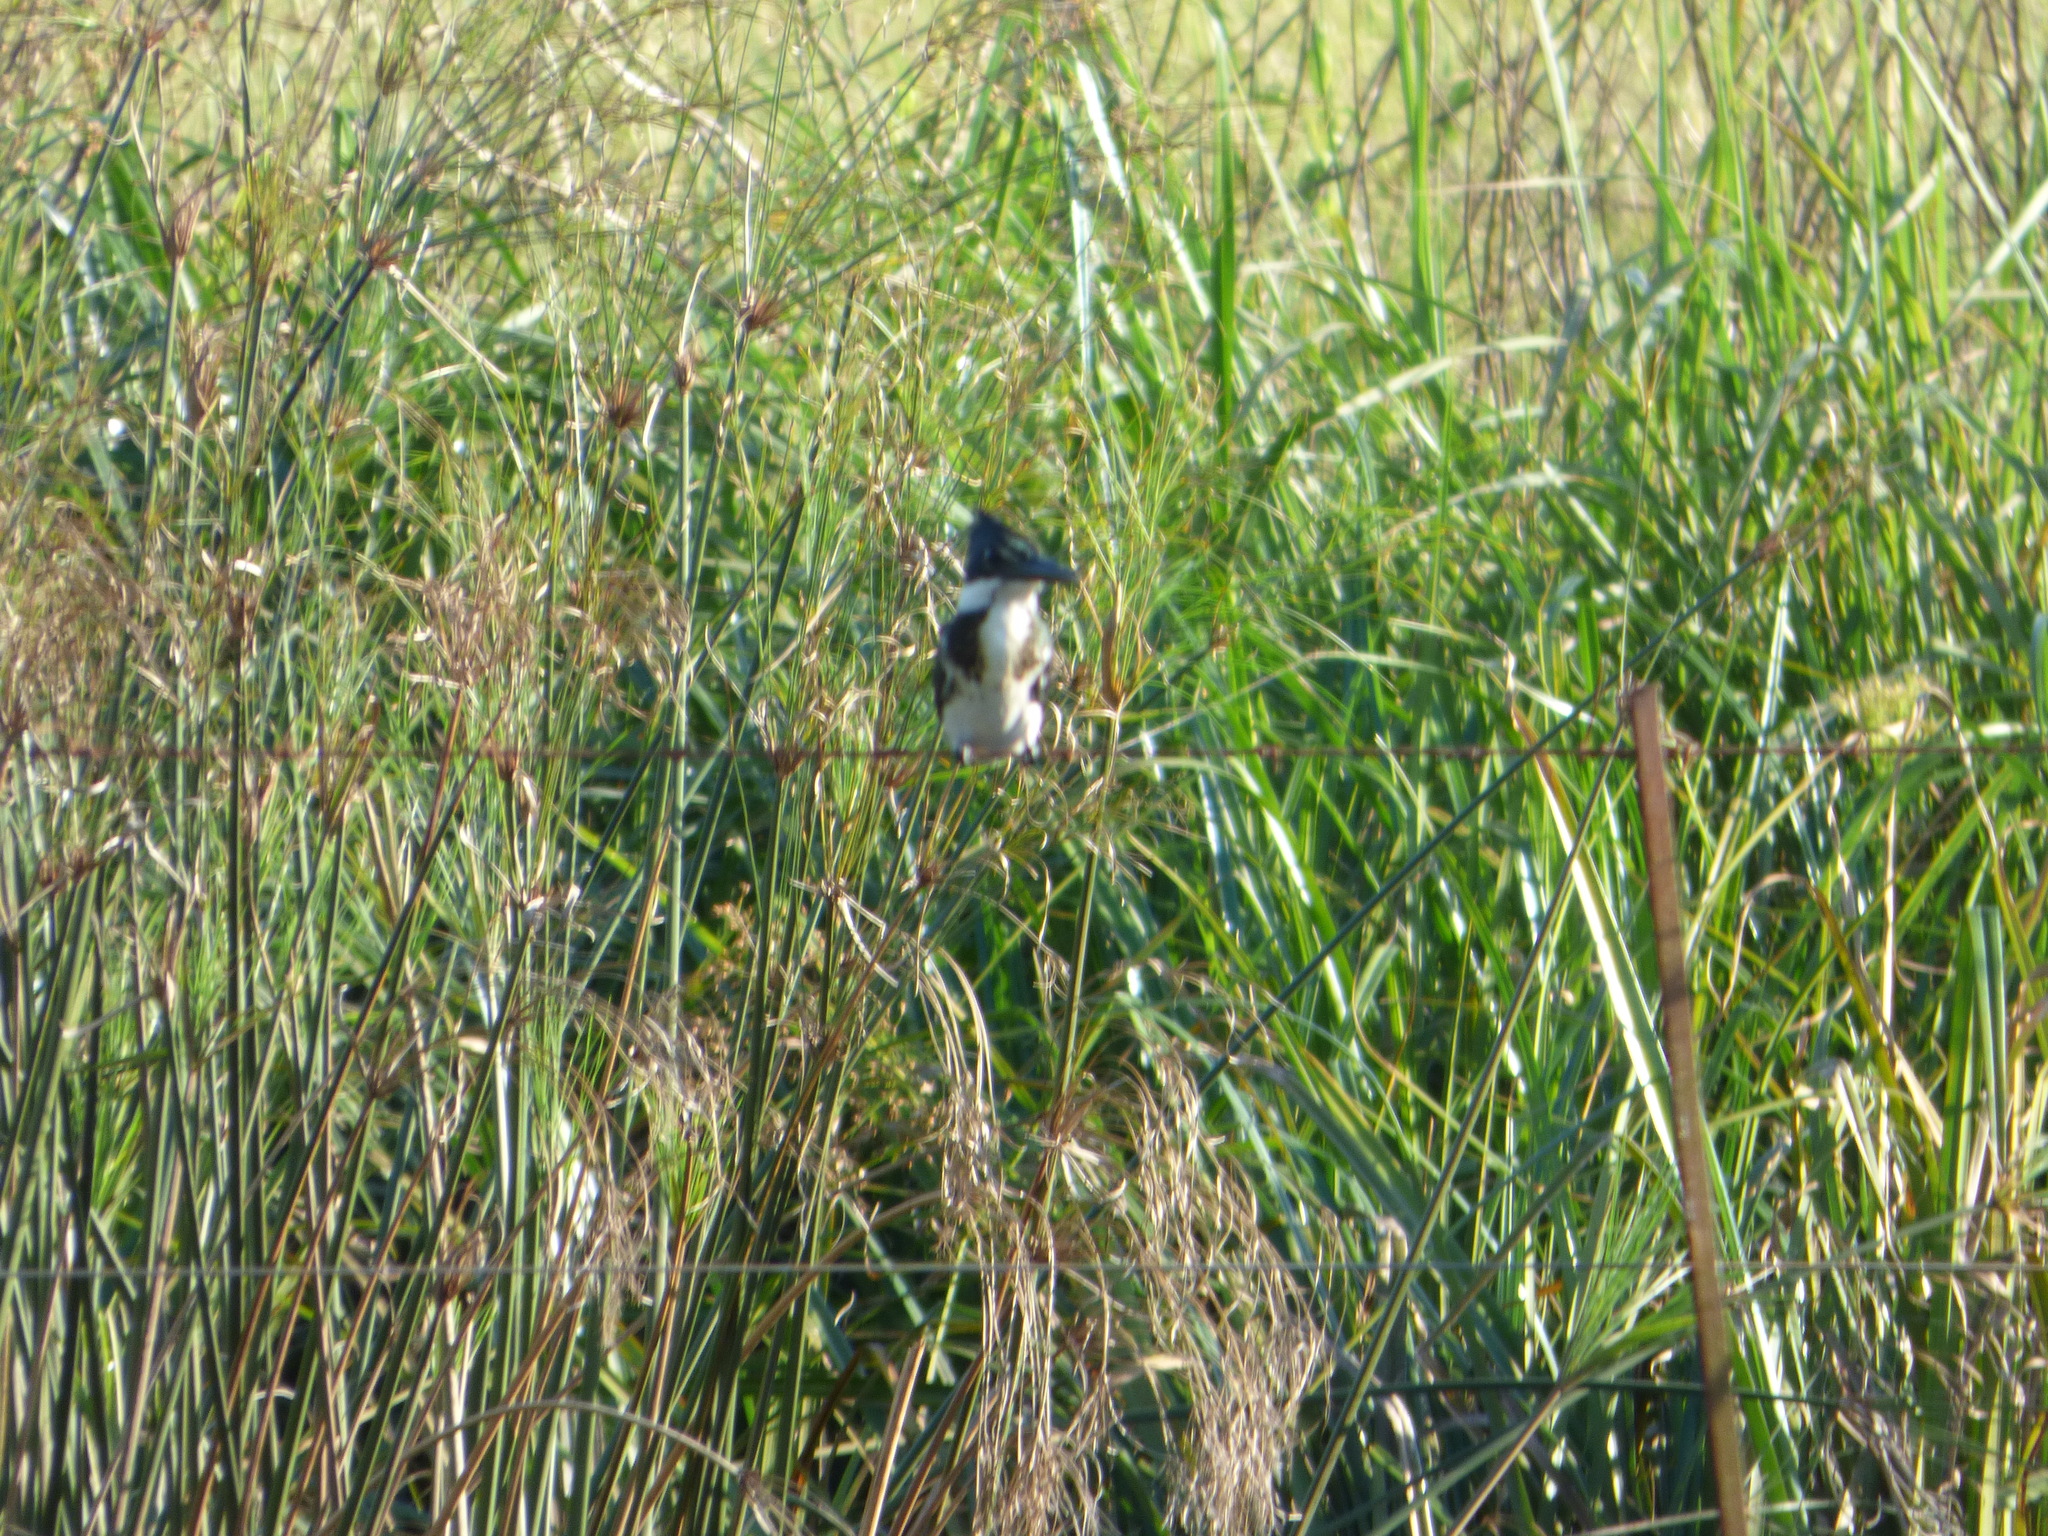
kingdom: Animalia
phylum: Chordata
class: Aves
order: Coraciiformes
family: Alcedinidae
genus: Chloroceryle
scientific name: Chloroceryle amazona
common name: Amazon kingfisher
